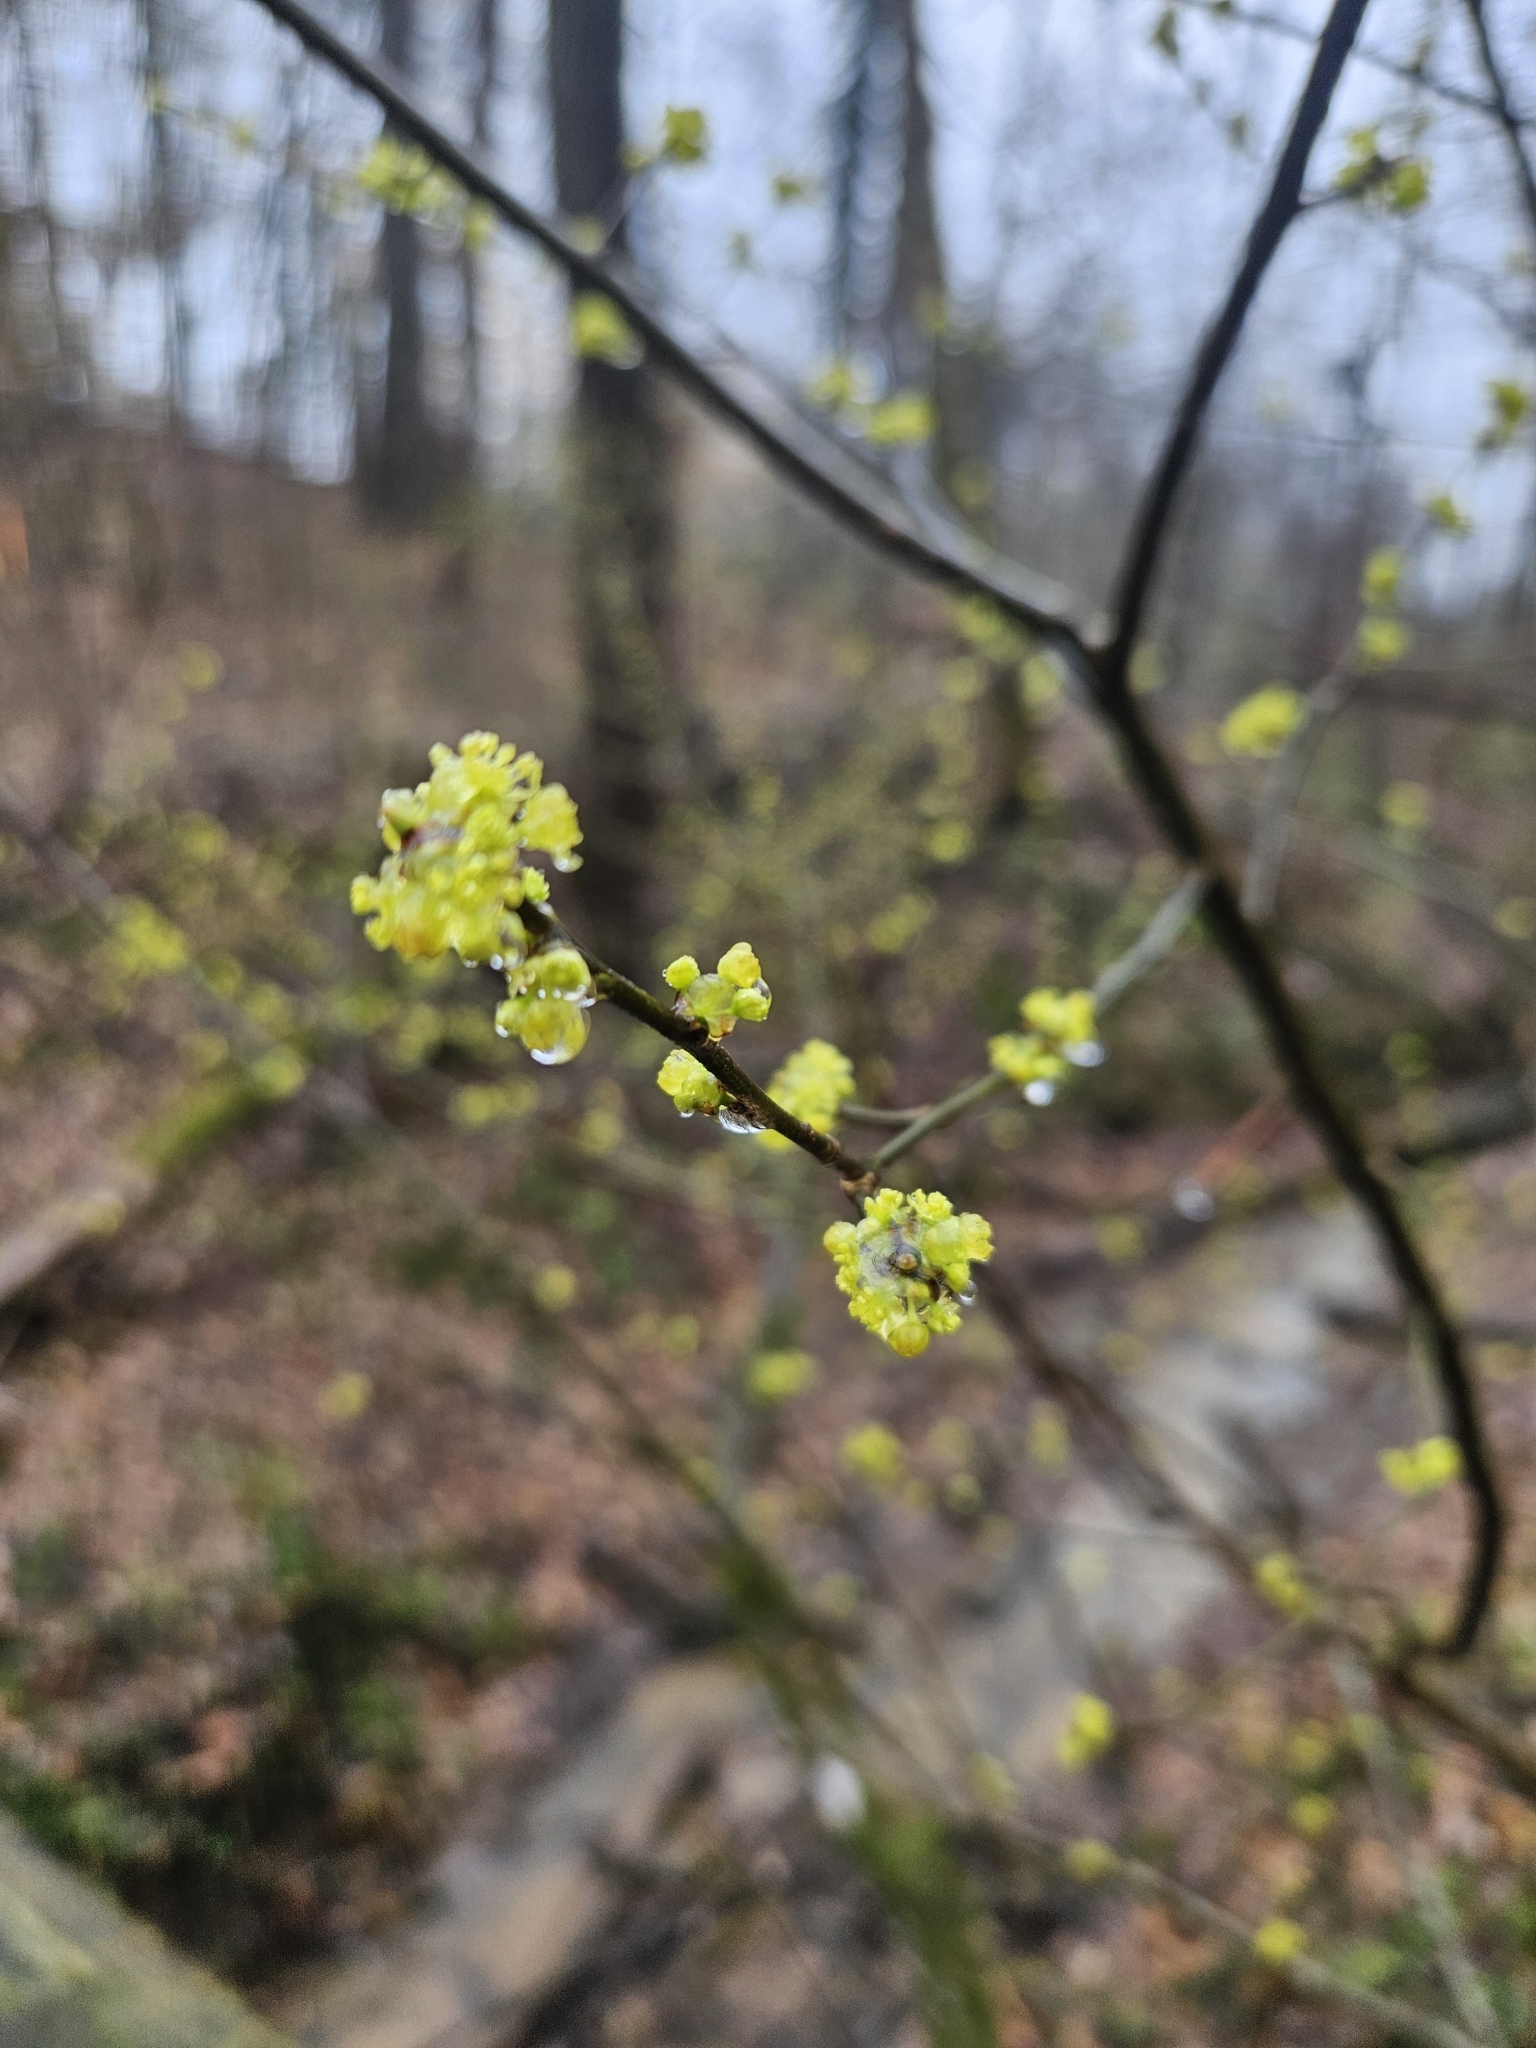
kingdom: Plantae
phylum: Tracheophyta
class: Magnoliopsida
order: Laurales
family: Lauraceae
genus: Lindera
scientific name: Lindera benzoin
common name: Spicebush
